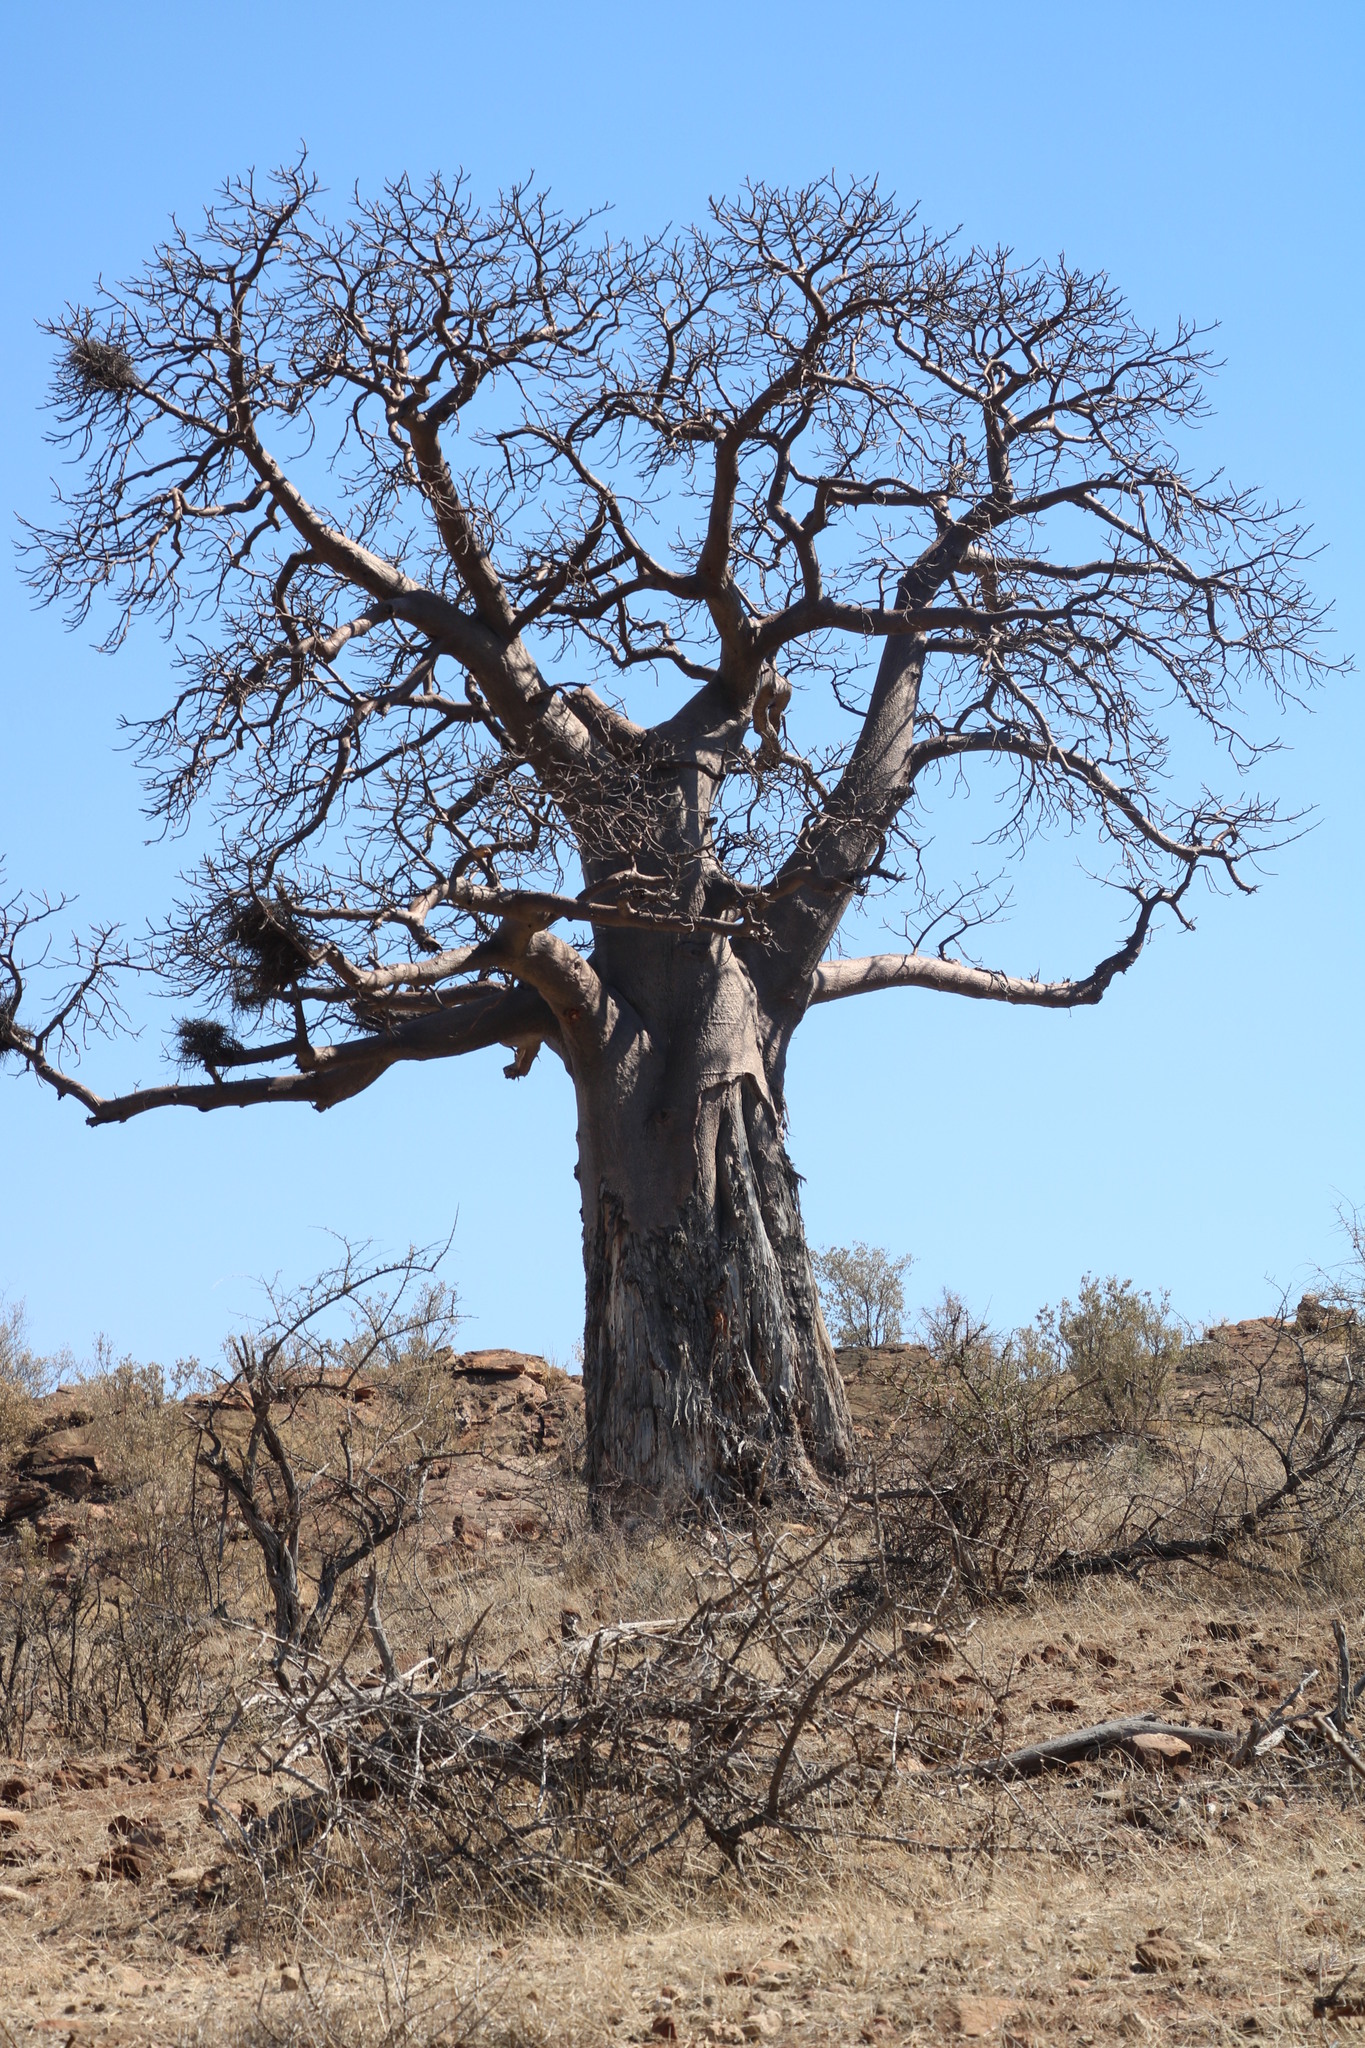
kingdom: Plantae
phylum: Tracheophyta
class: Magnoliopsida
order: Malvales
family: Malvaceae
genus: Adansonia
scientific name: Adansonia digitata
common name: Dead-rat-tree
